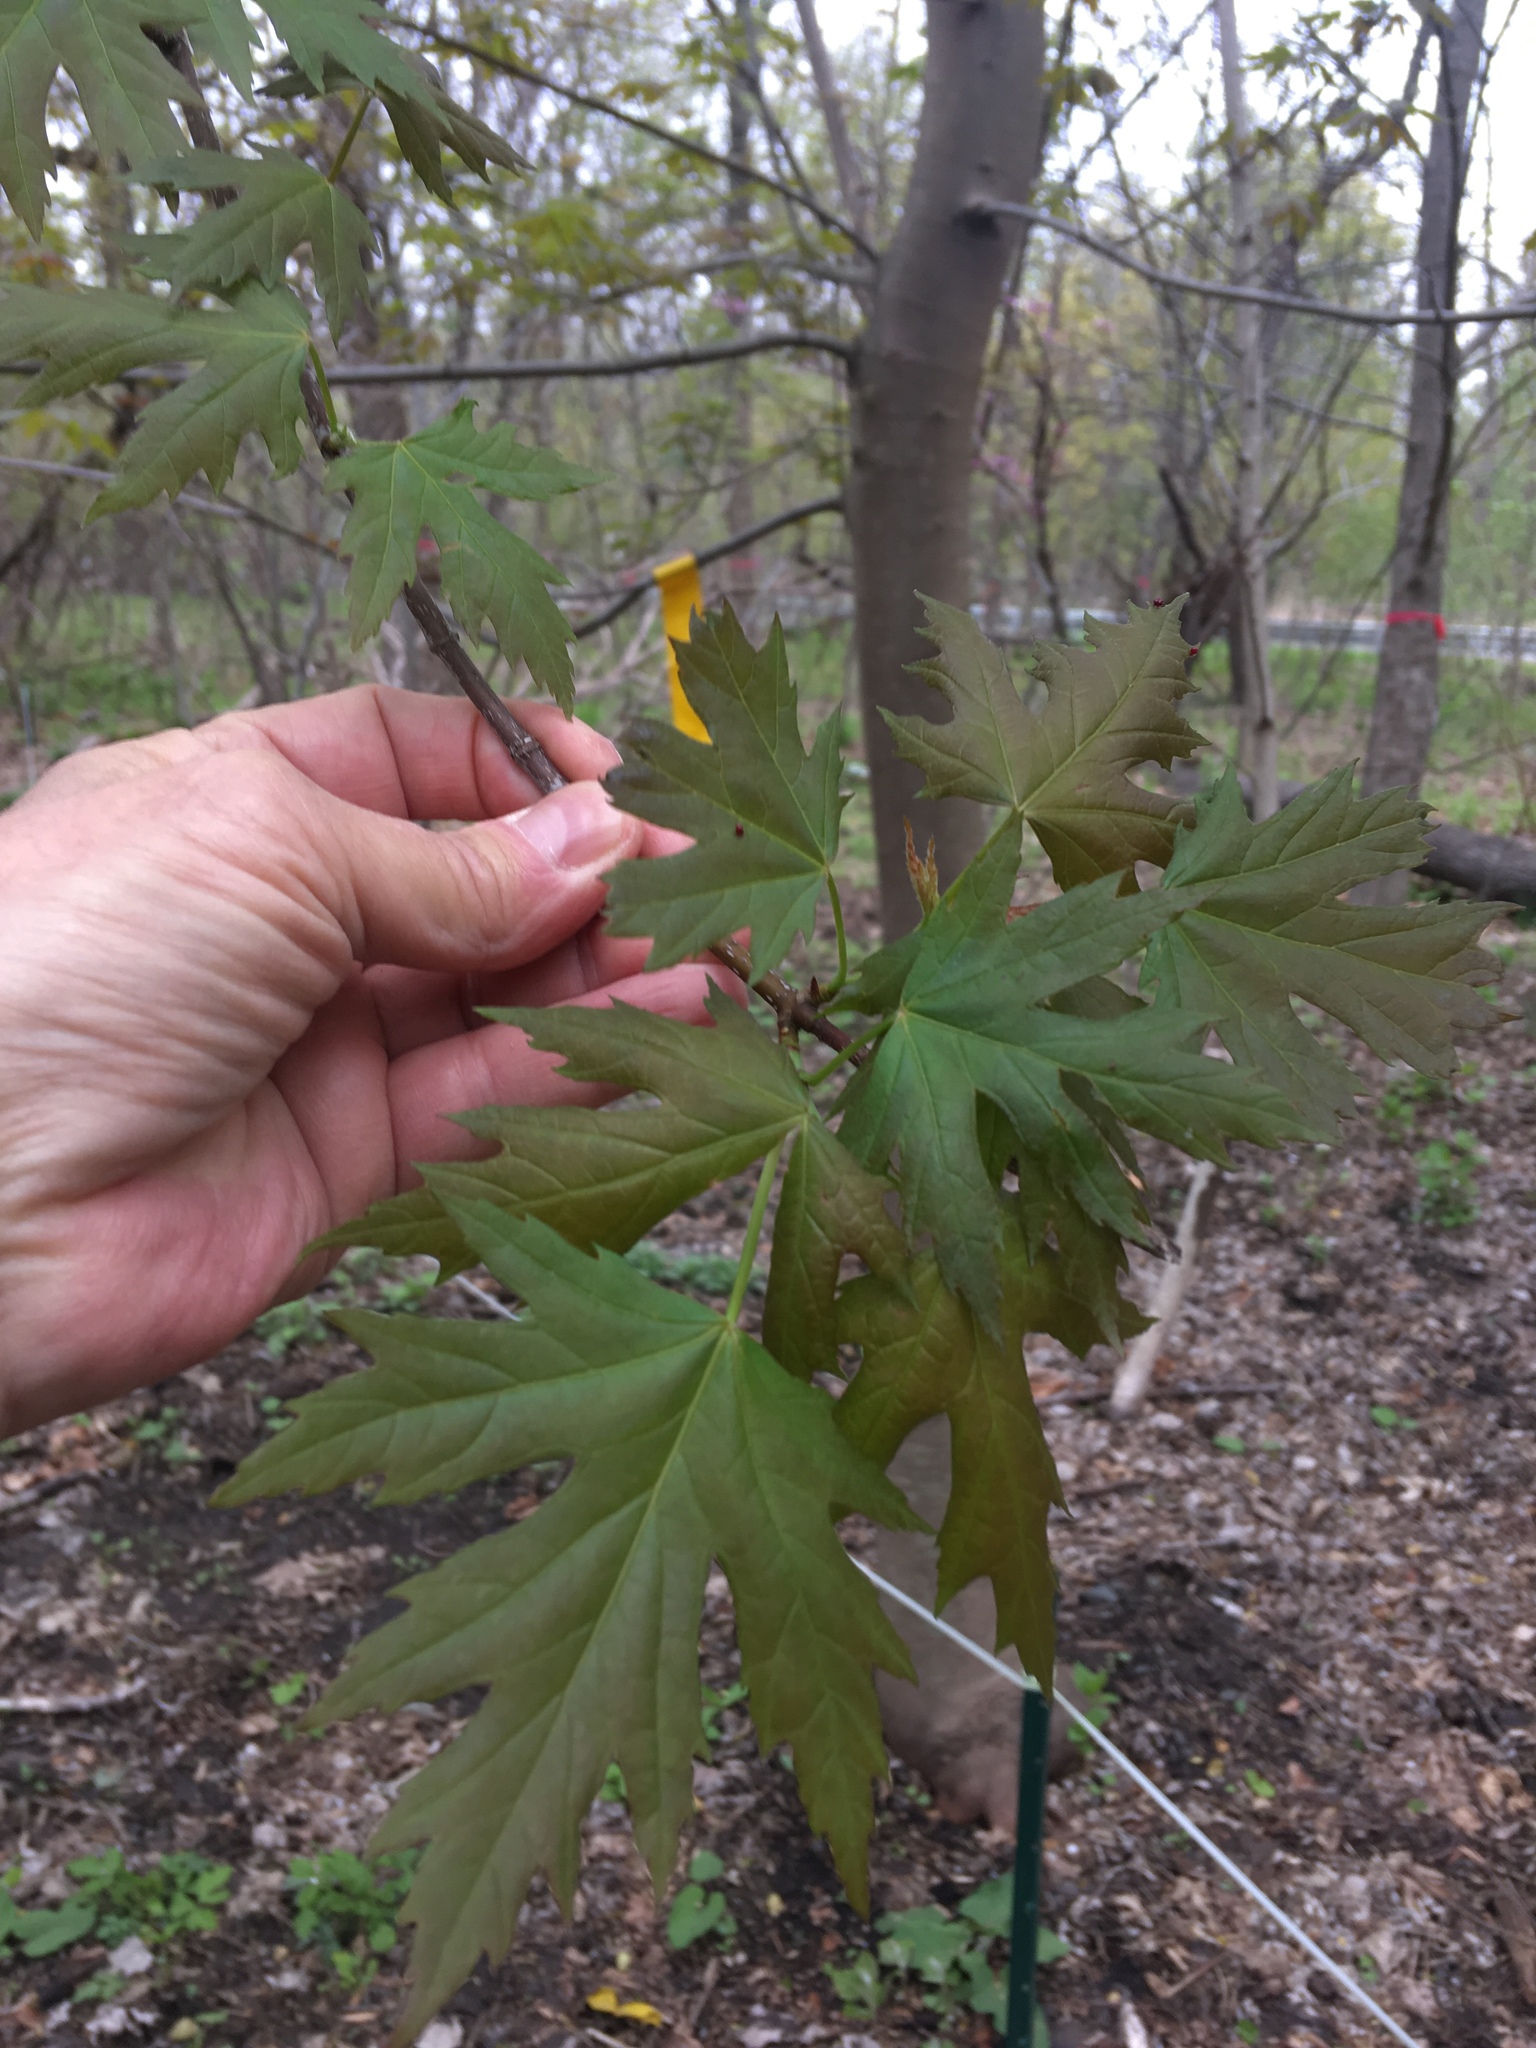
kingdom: Plantae
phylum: Tracheophyta
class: Magnoliopsida
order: Sapindales
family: Sapindaceae
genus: Acer
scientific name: Acer saccharinum
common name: Silver maple
